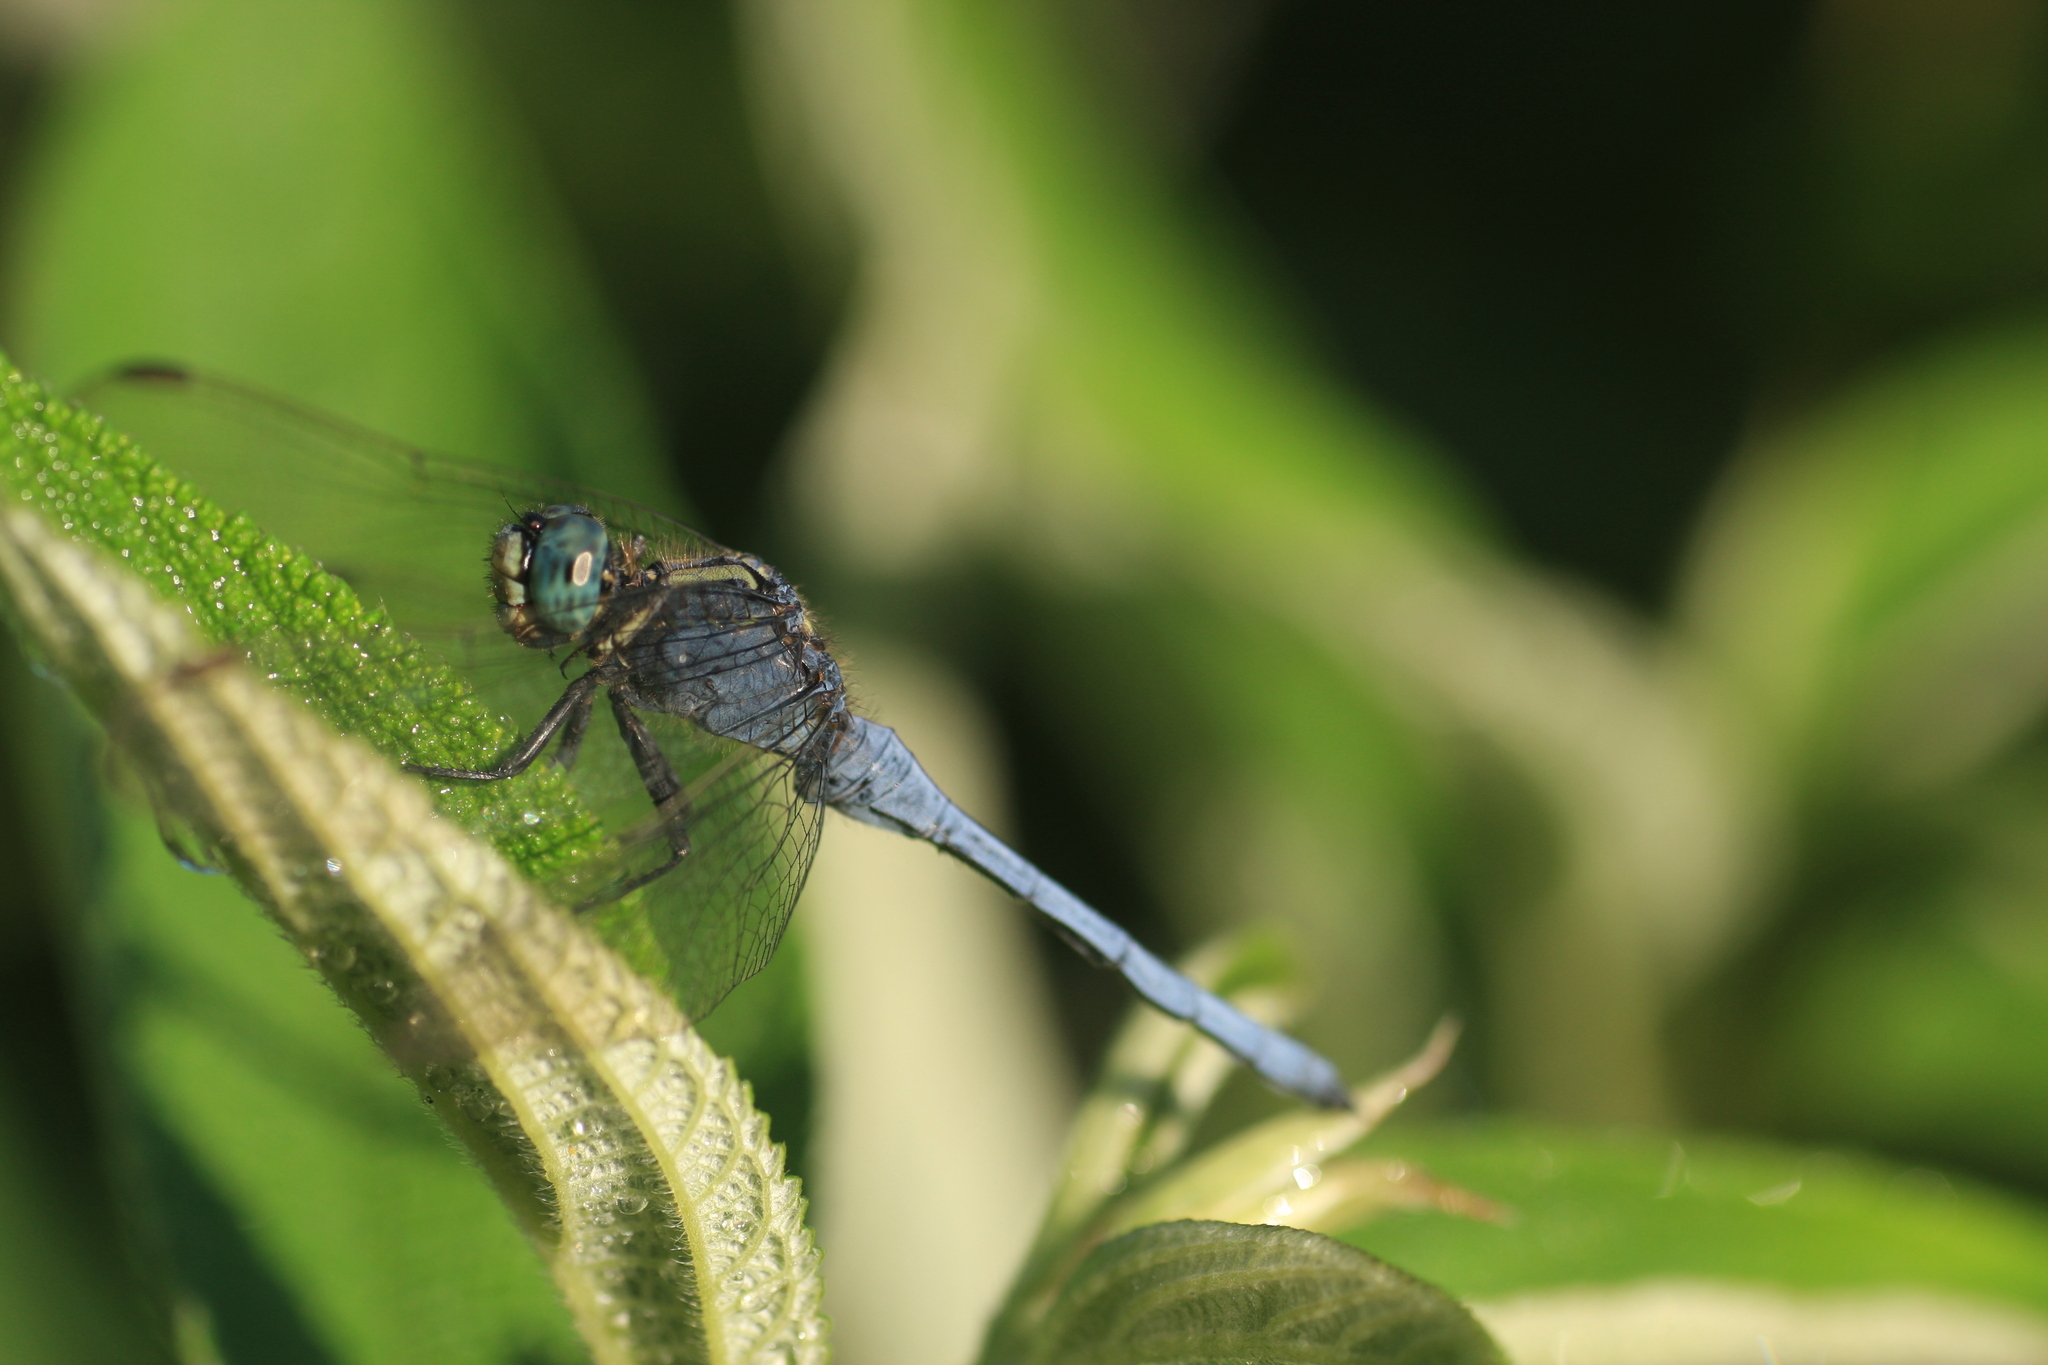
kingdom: Animalia
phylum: Arthropoda
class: Insecta
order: Odonata
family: Libellulidae
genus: Orthetrum
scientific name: Orthetrum luzonicum
